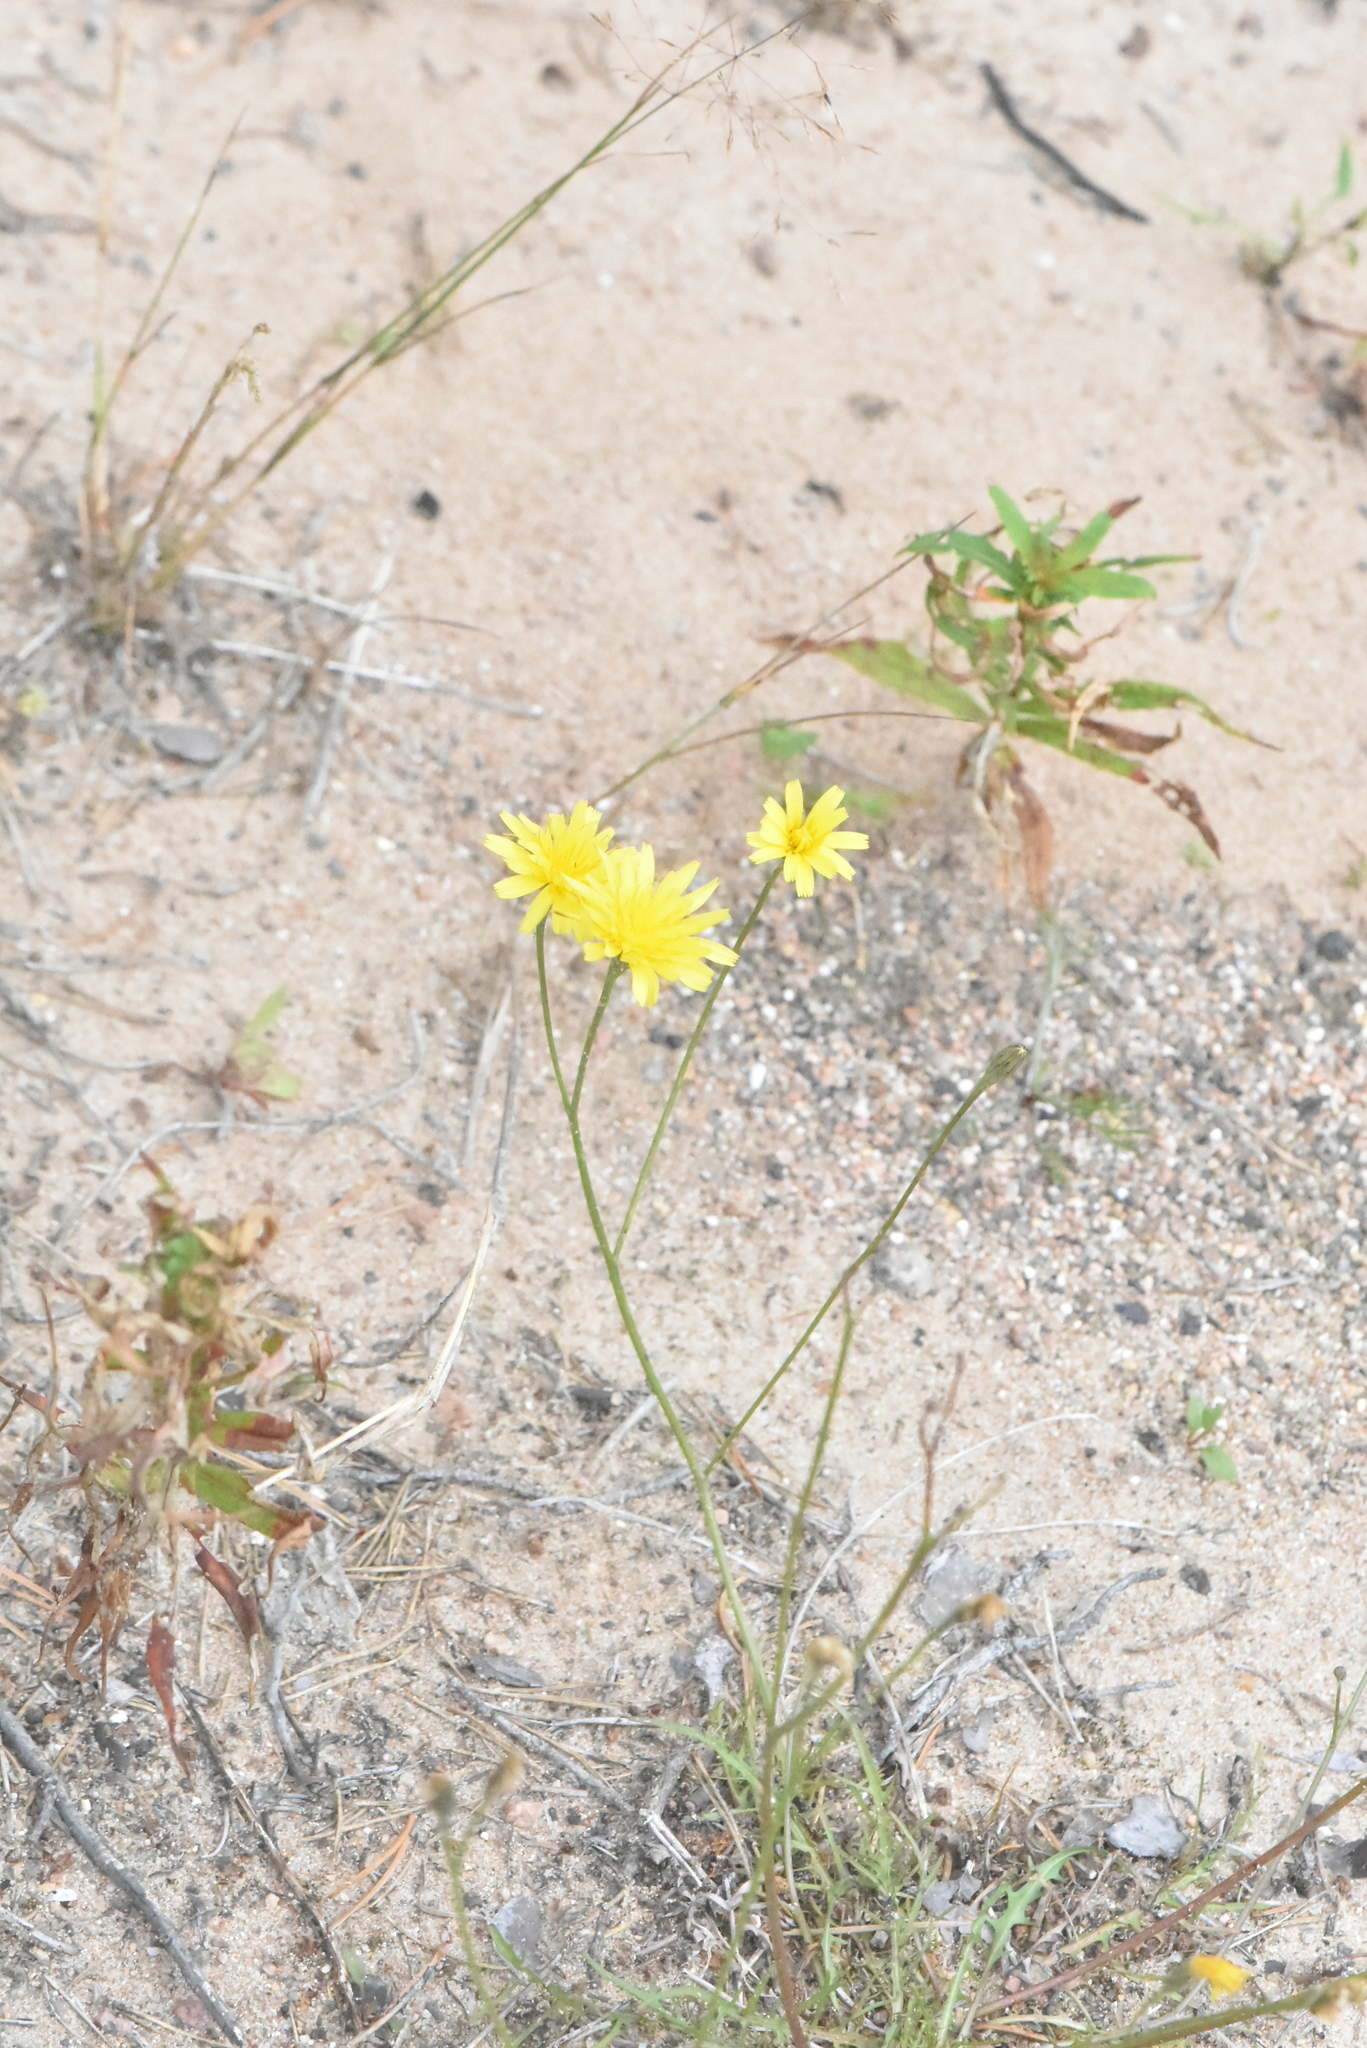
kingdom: Plantae
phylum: Tracheophyta
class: Magnoliopsida
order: Asterales
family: Asteraceae
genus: Scorzoneroides
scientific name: Scorzoneroides autumnalis
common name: Autumn hawkbit
